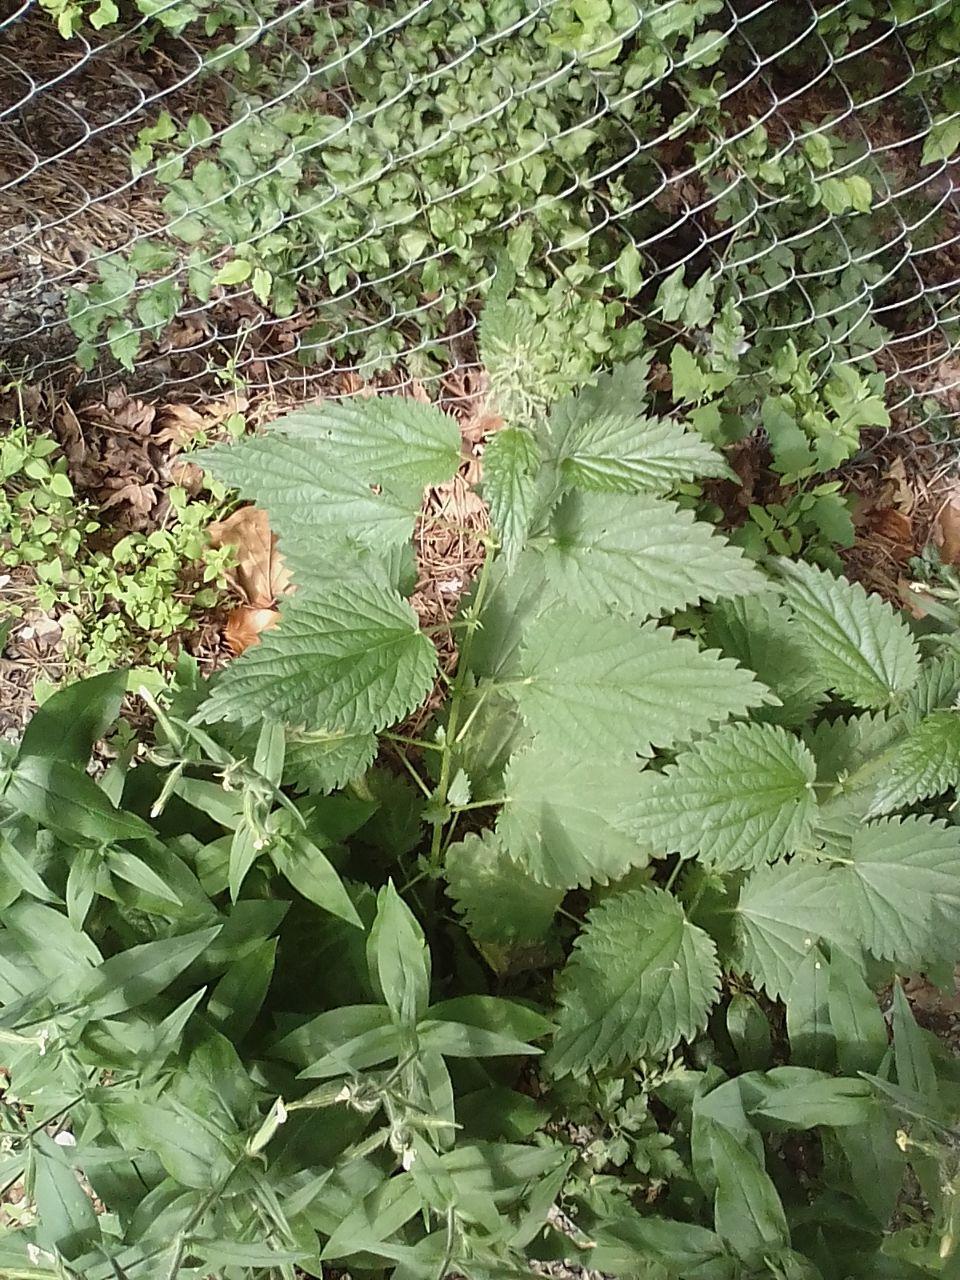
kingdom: Plantae
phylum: Tracheophyta
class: Magnoliopsida
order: Rosales
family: Urticaceae
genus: Urtica
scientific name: Urtica dioica
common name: Common nettle
